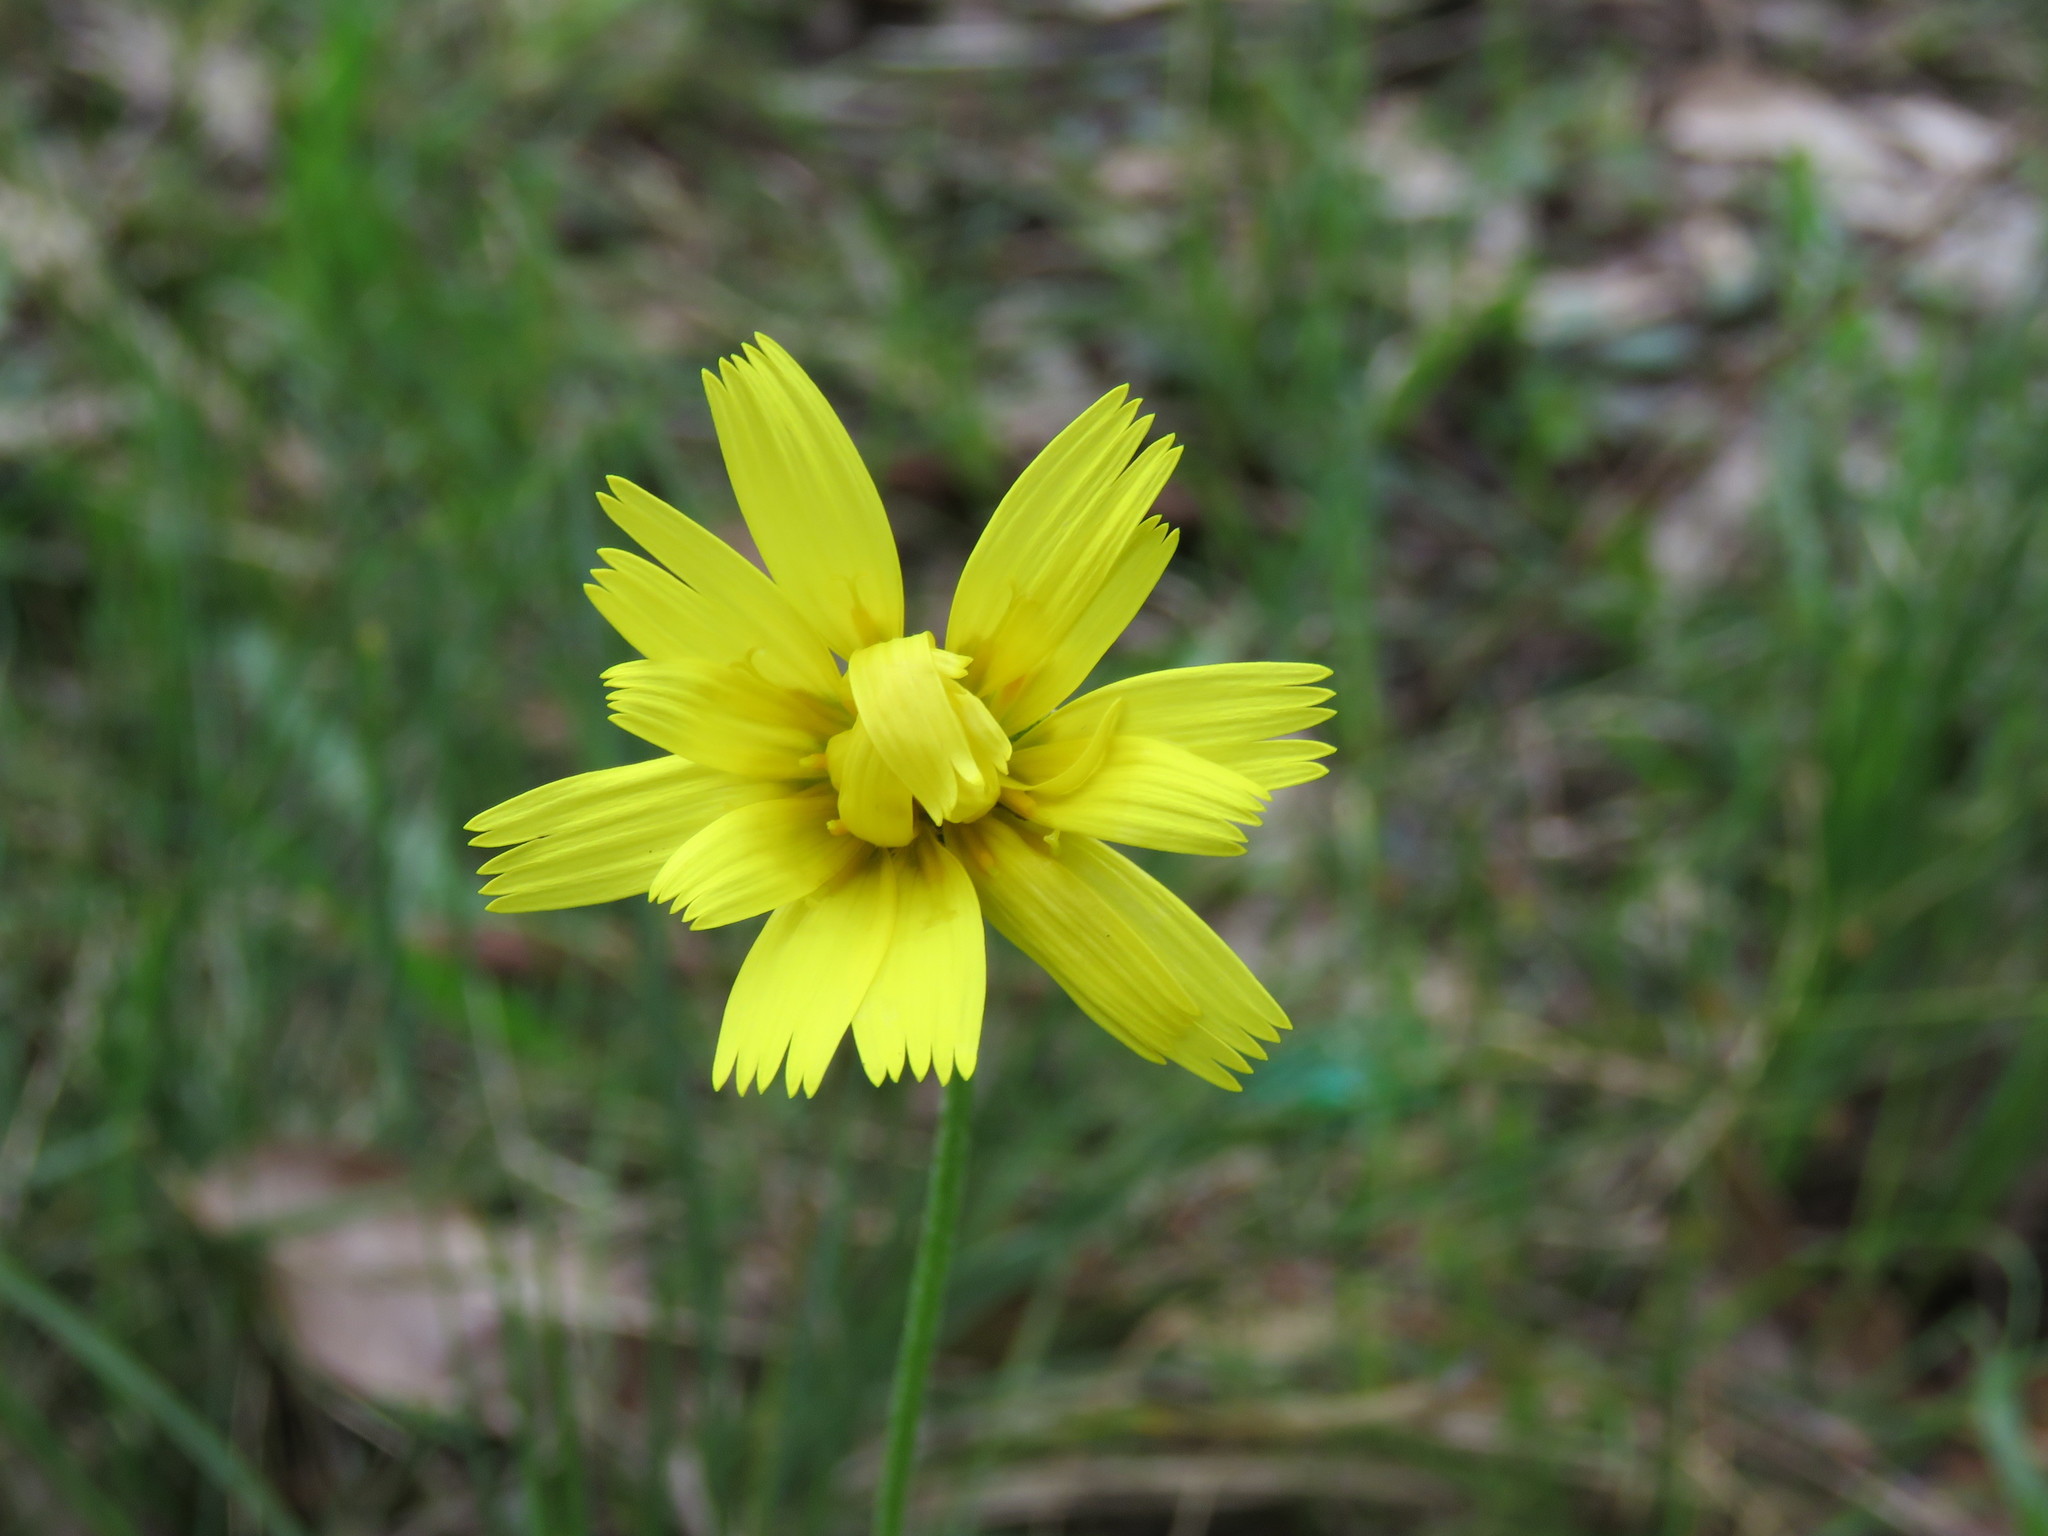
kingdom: Plantae
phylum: Tracheophyta
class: Magnoliopsida
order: Asterales
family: Asteraceae
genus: Microseris
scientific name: Microseris lanceolata
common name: Yam daisy
